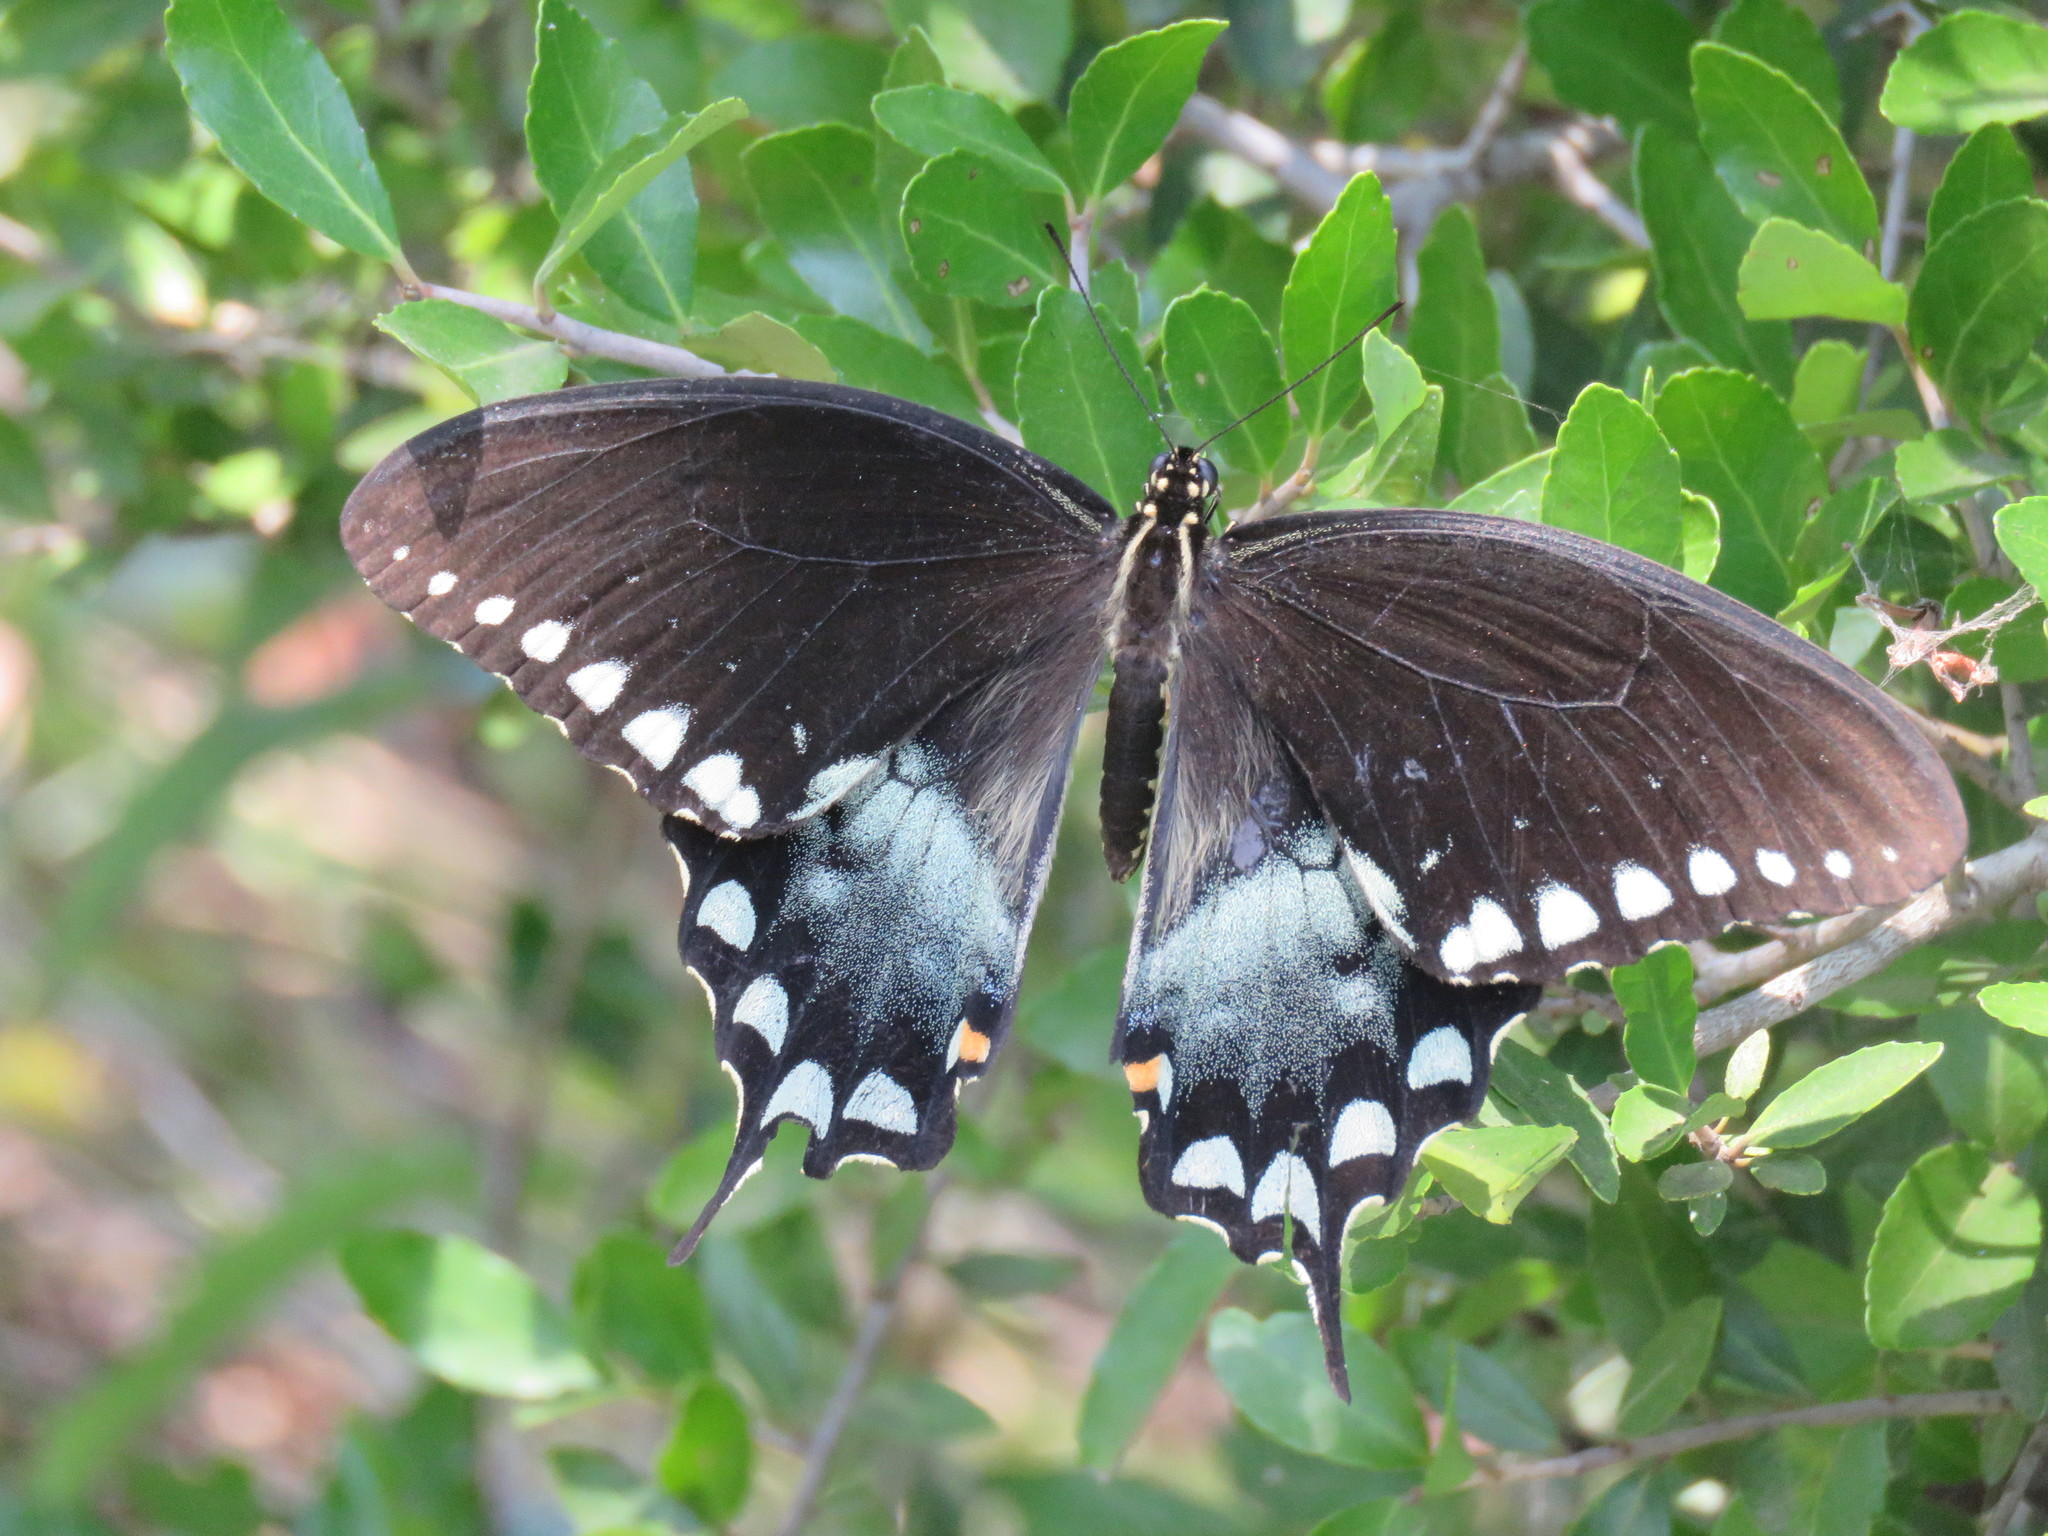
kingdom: Animalia
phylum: Arthropoda
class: Insecta
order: Lepidoptera
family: Papilionidae
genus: Papilio
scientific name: Papilio troilus
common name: Spicebush swallowtail
